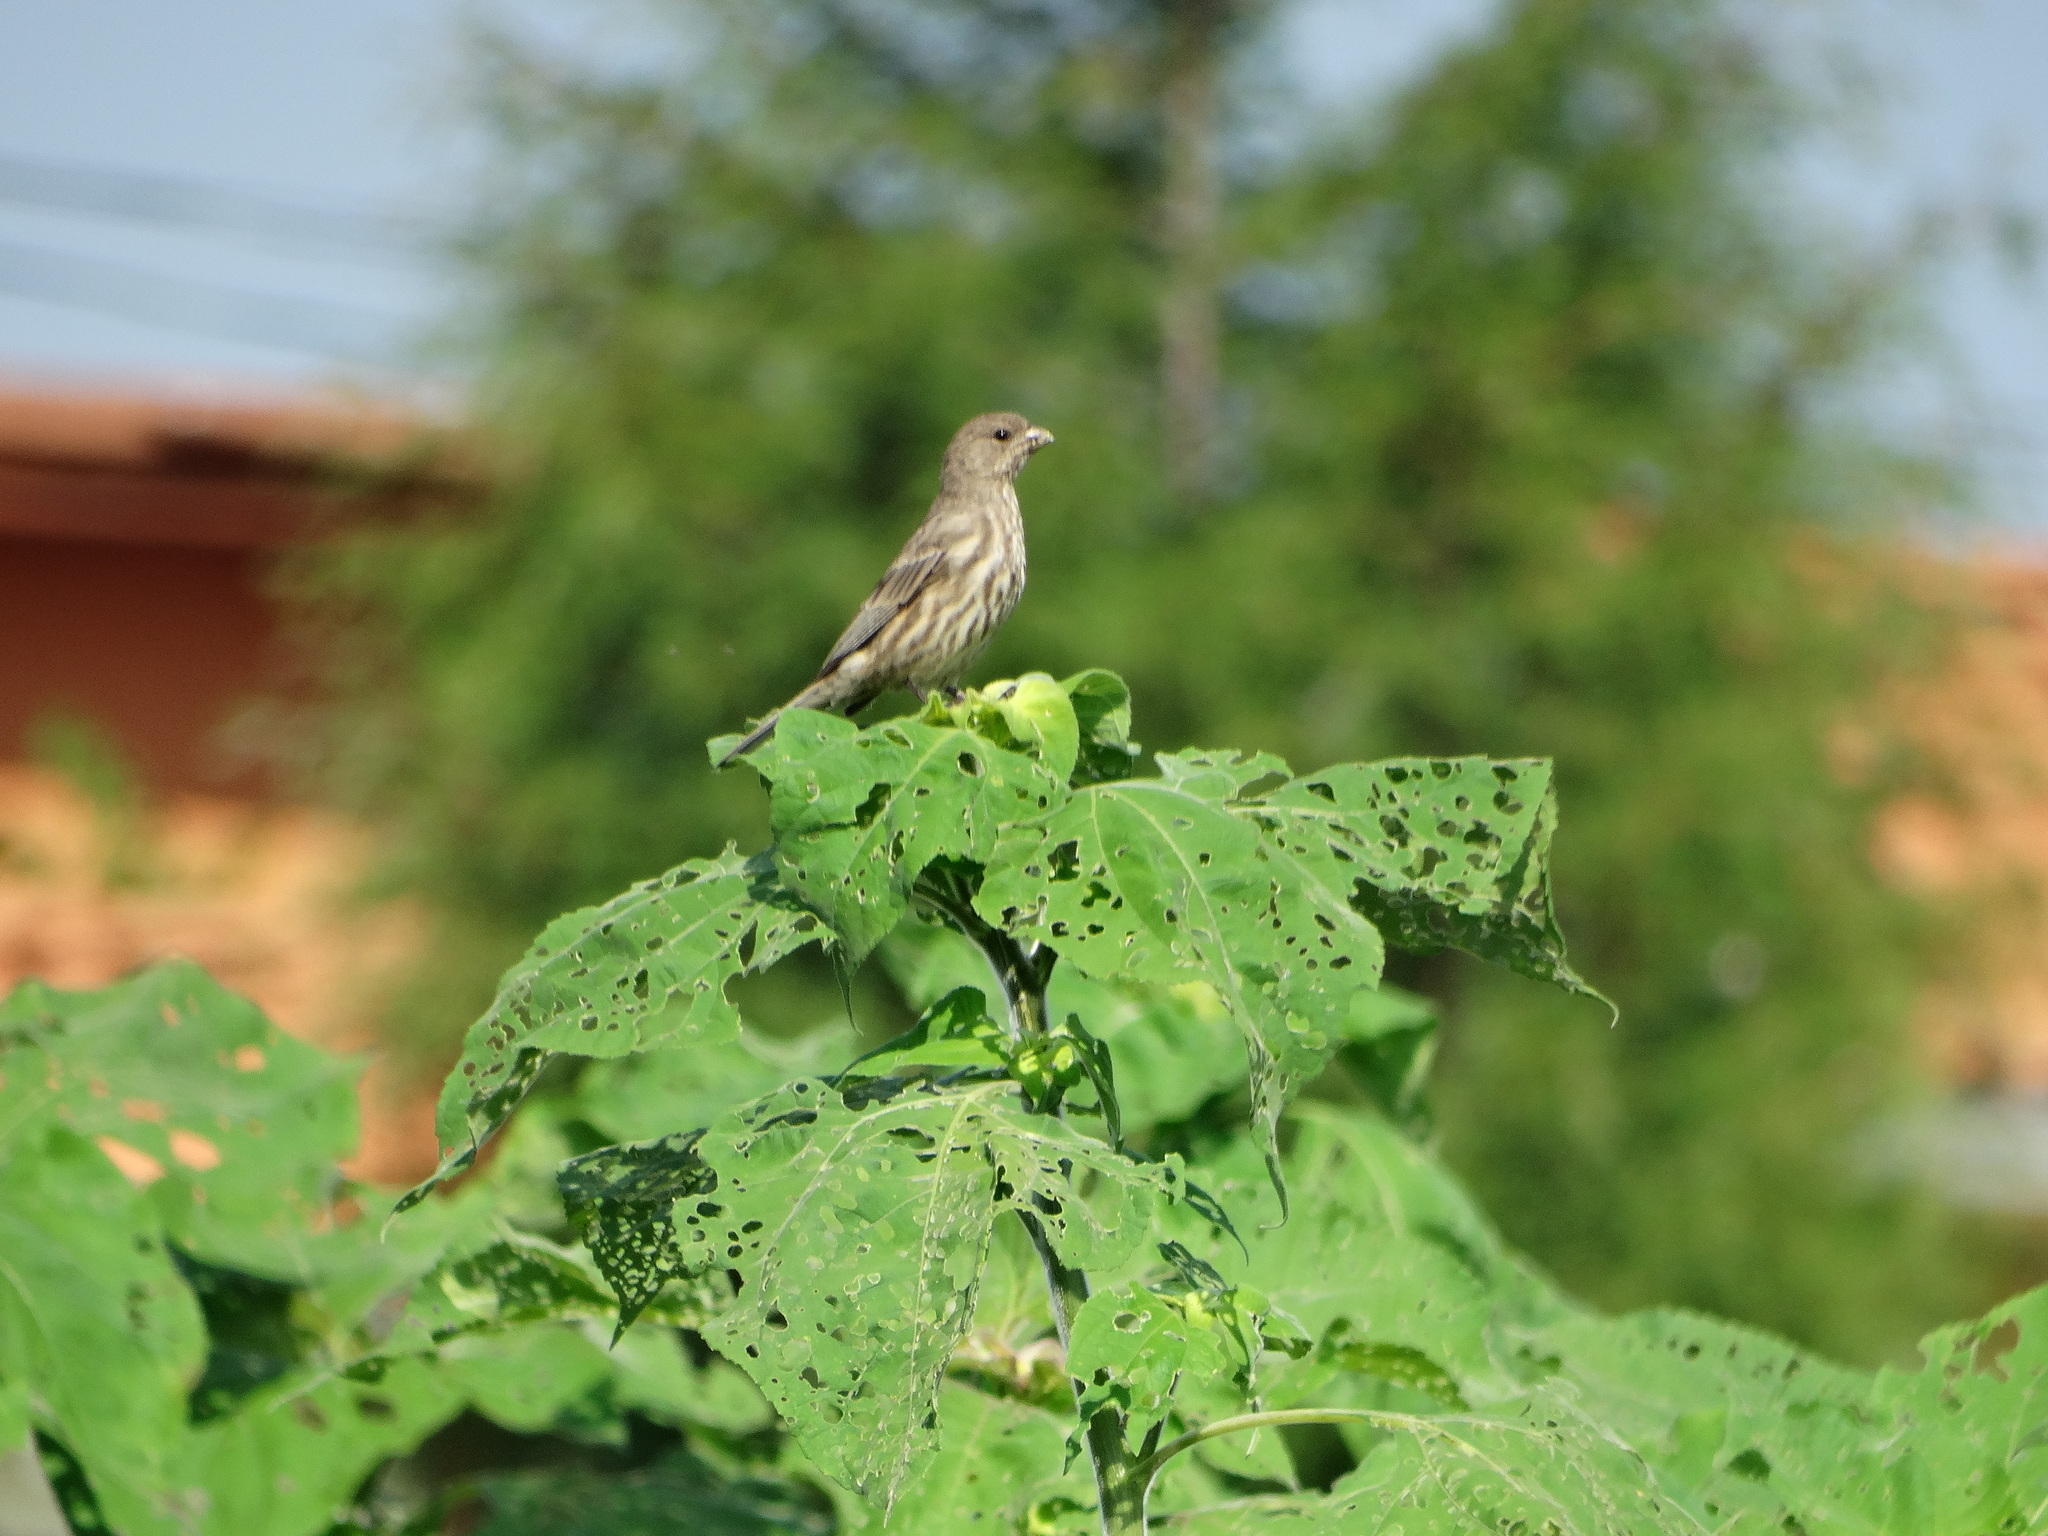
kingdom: Animalia
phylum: Chordata
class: Aves
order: Passeriformes
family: Fringillidae
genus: Haemorhous
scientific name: Haemorhous mexicanus
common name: House finch
